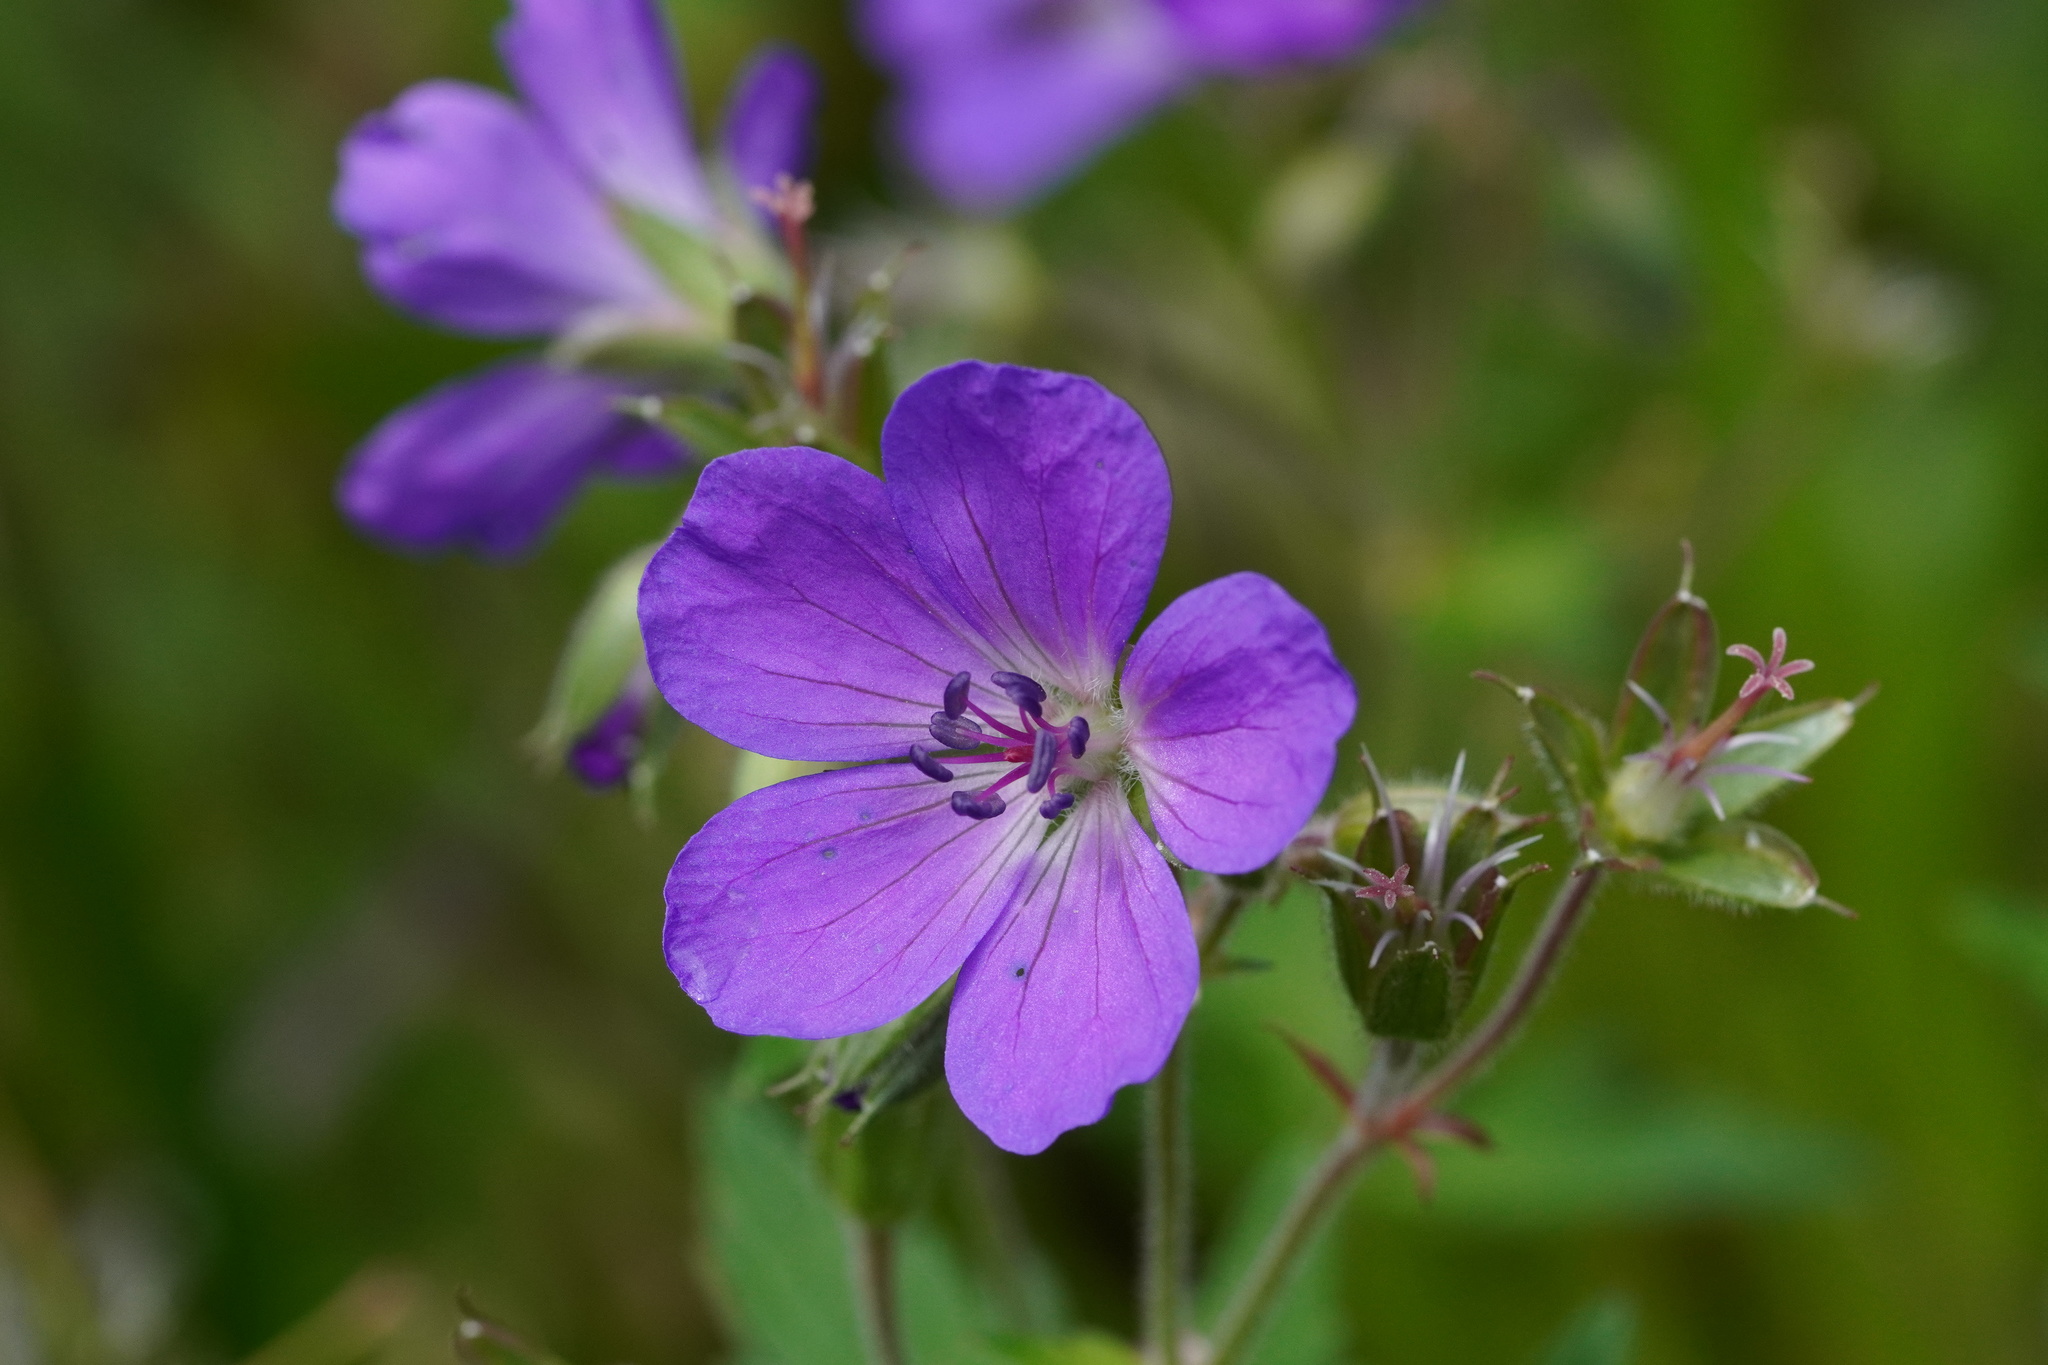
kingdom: Plantae
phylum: Tracheophyta
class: Magnoliopsida
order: Geraniales
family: Geraniaceae
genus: Geranium
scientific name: Geranium sylvaticum
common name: Wood crane's-bill
